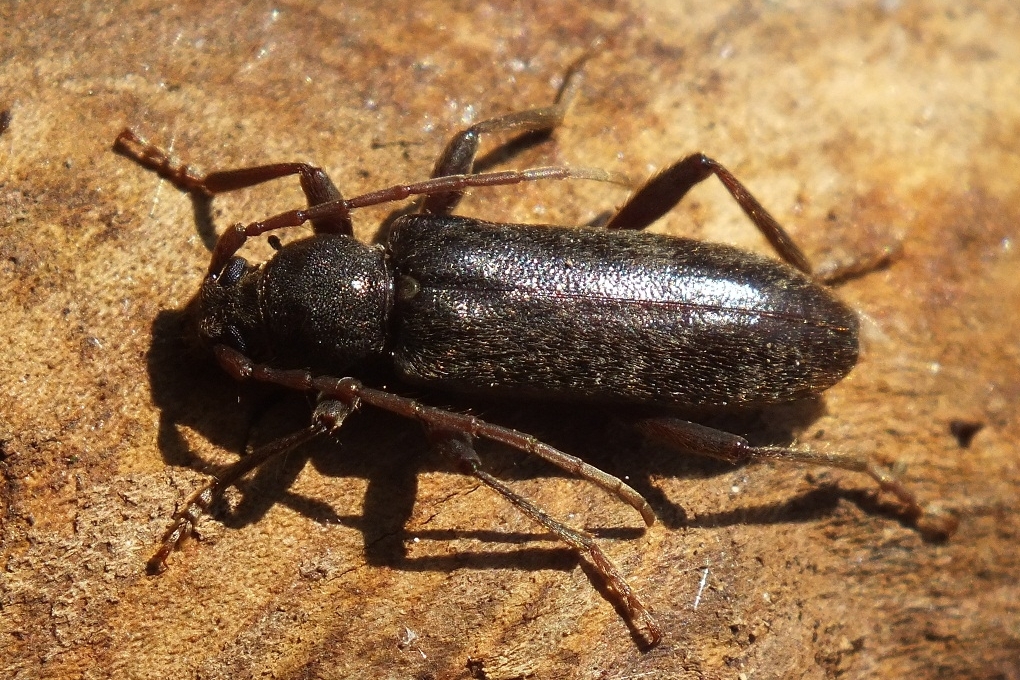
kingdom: Animalia
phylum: Arthropoda
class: Insecta
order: Coleoptera
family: Cerambycidae
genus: Trichoferus
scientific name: Trichoferus campestris
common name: Velvet long horned beetle
